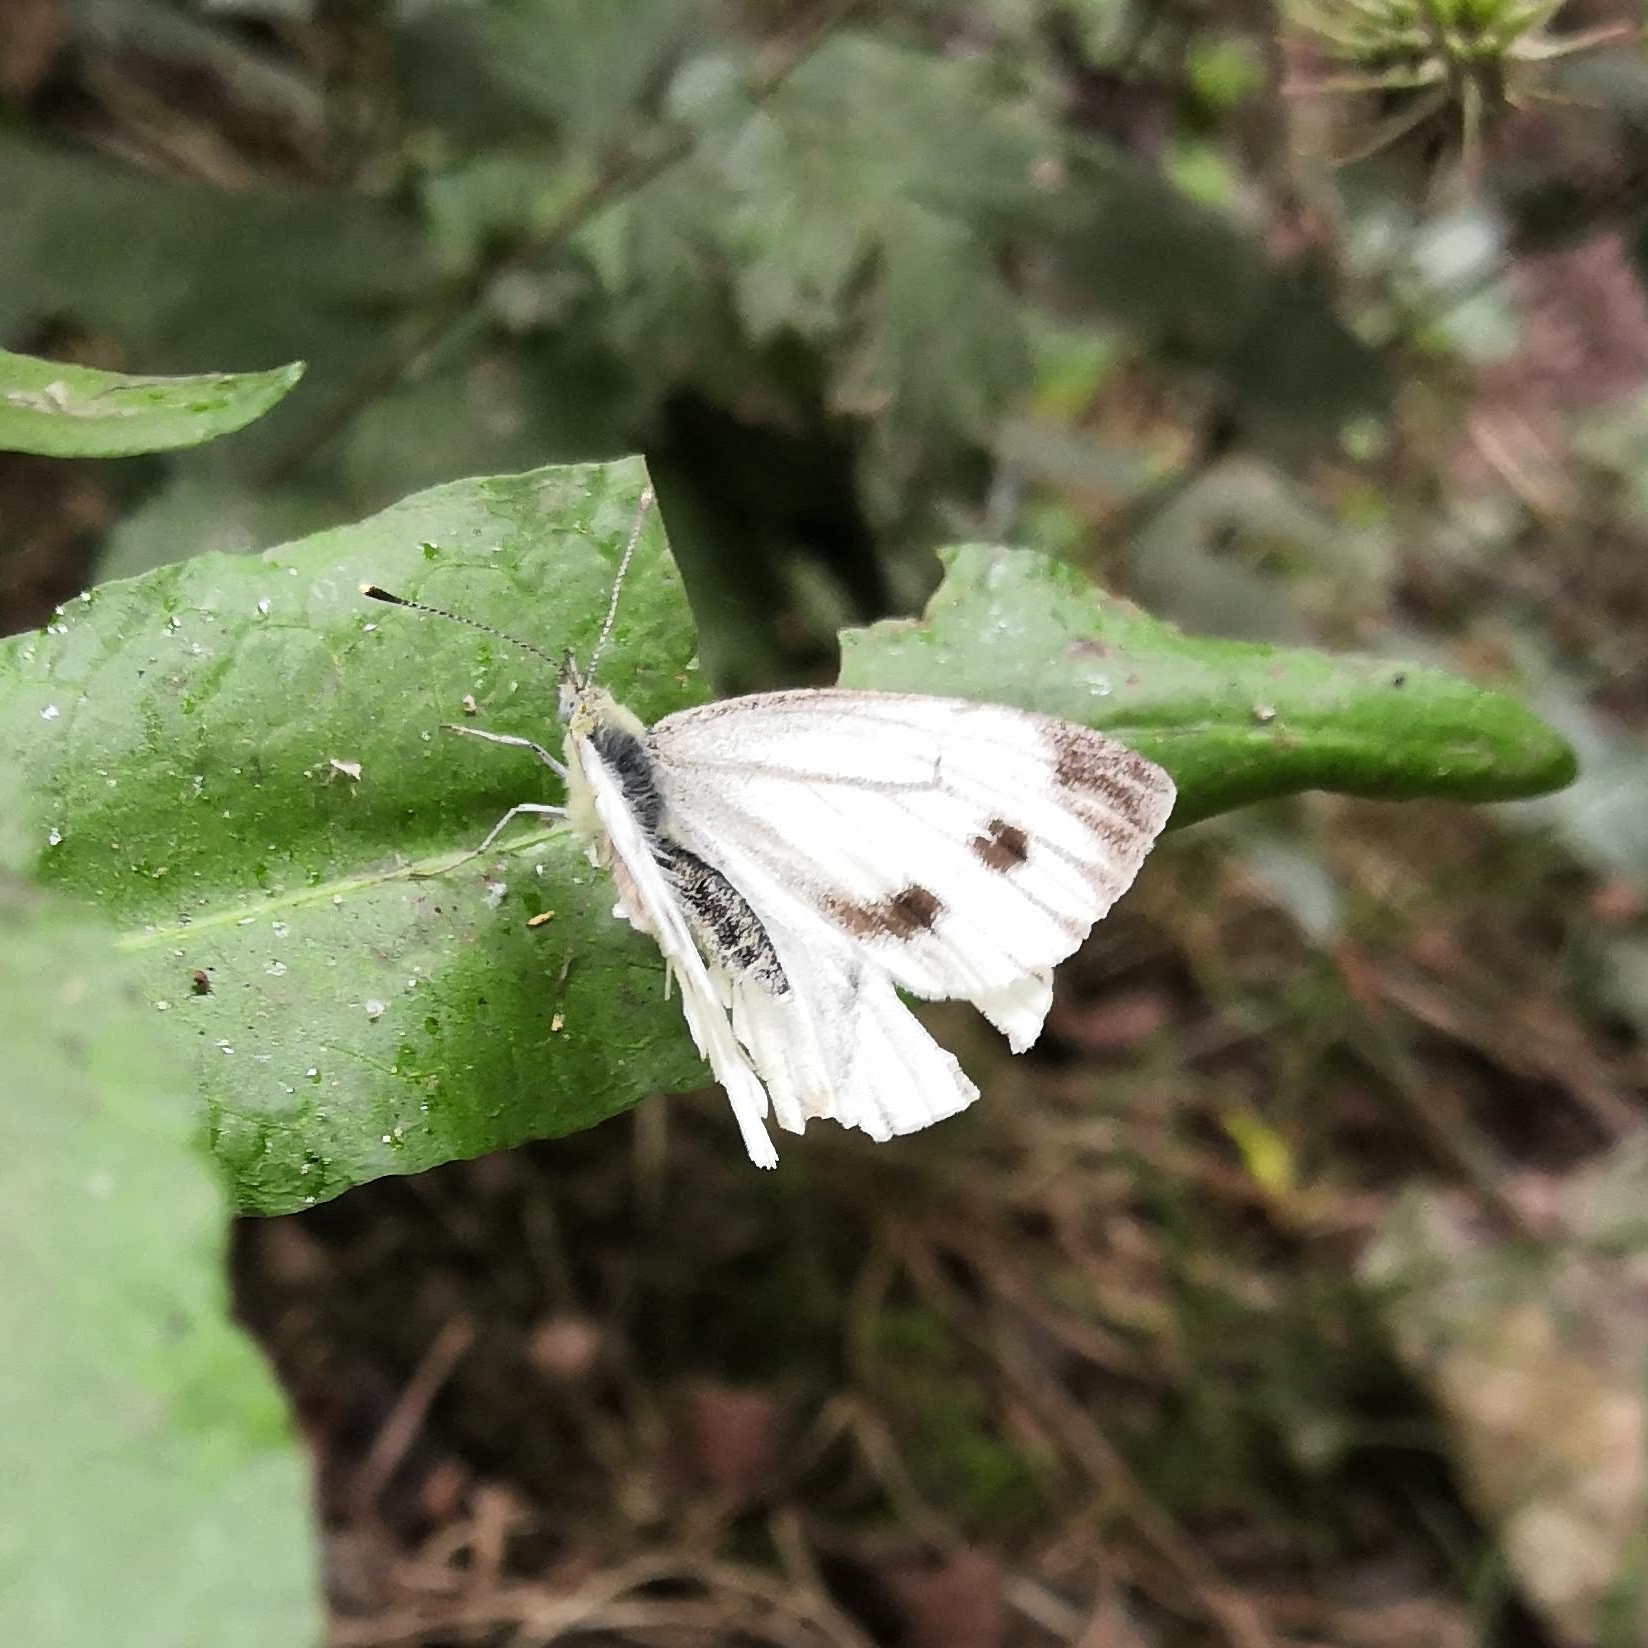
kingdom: Animalia
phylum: Arthropoda
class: Insecta
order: Lepidoptera
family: Pieridae
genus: Pieris
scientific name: Pieris napi
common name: Green-veined white
